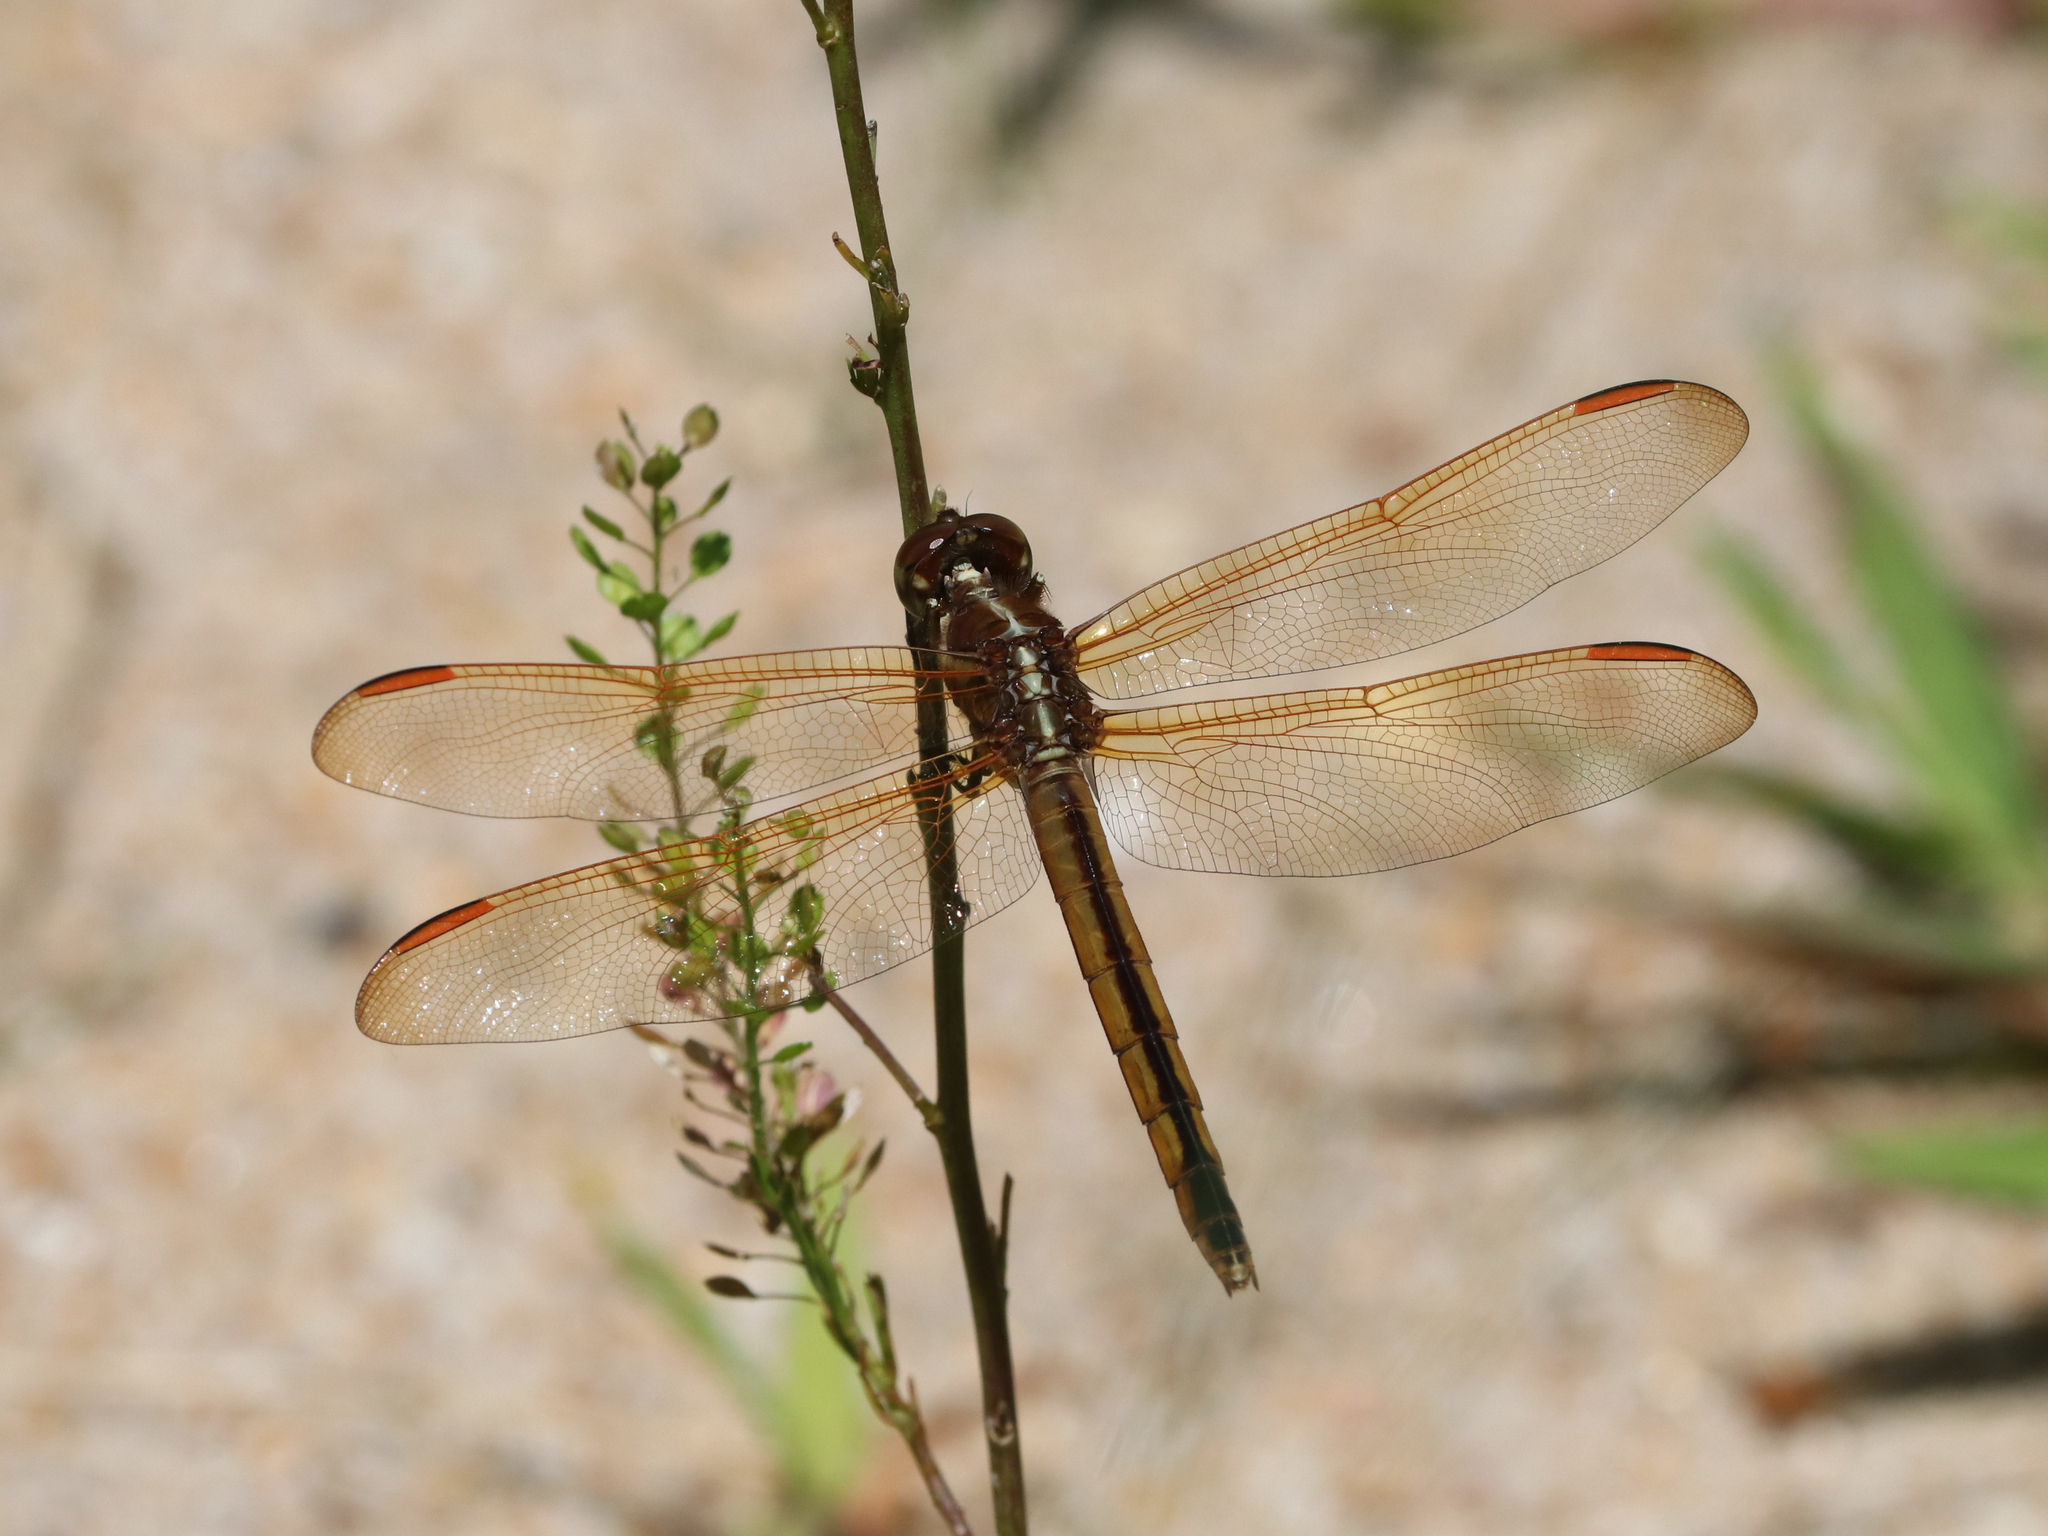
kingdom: Animalia
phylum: Arthropoda
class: Insecta
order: Odonata
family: Libellulidae
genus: Libellula
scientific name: Libellula auripennis
